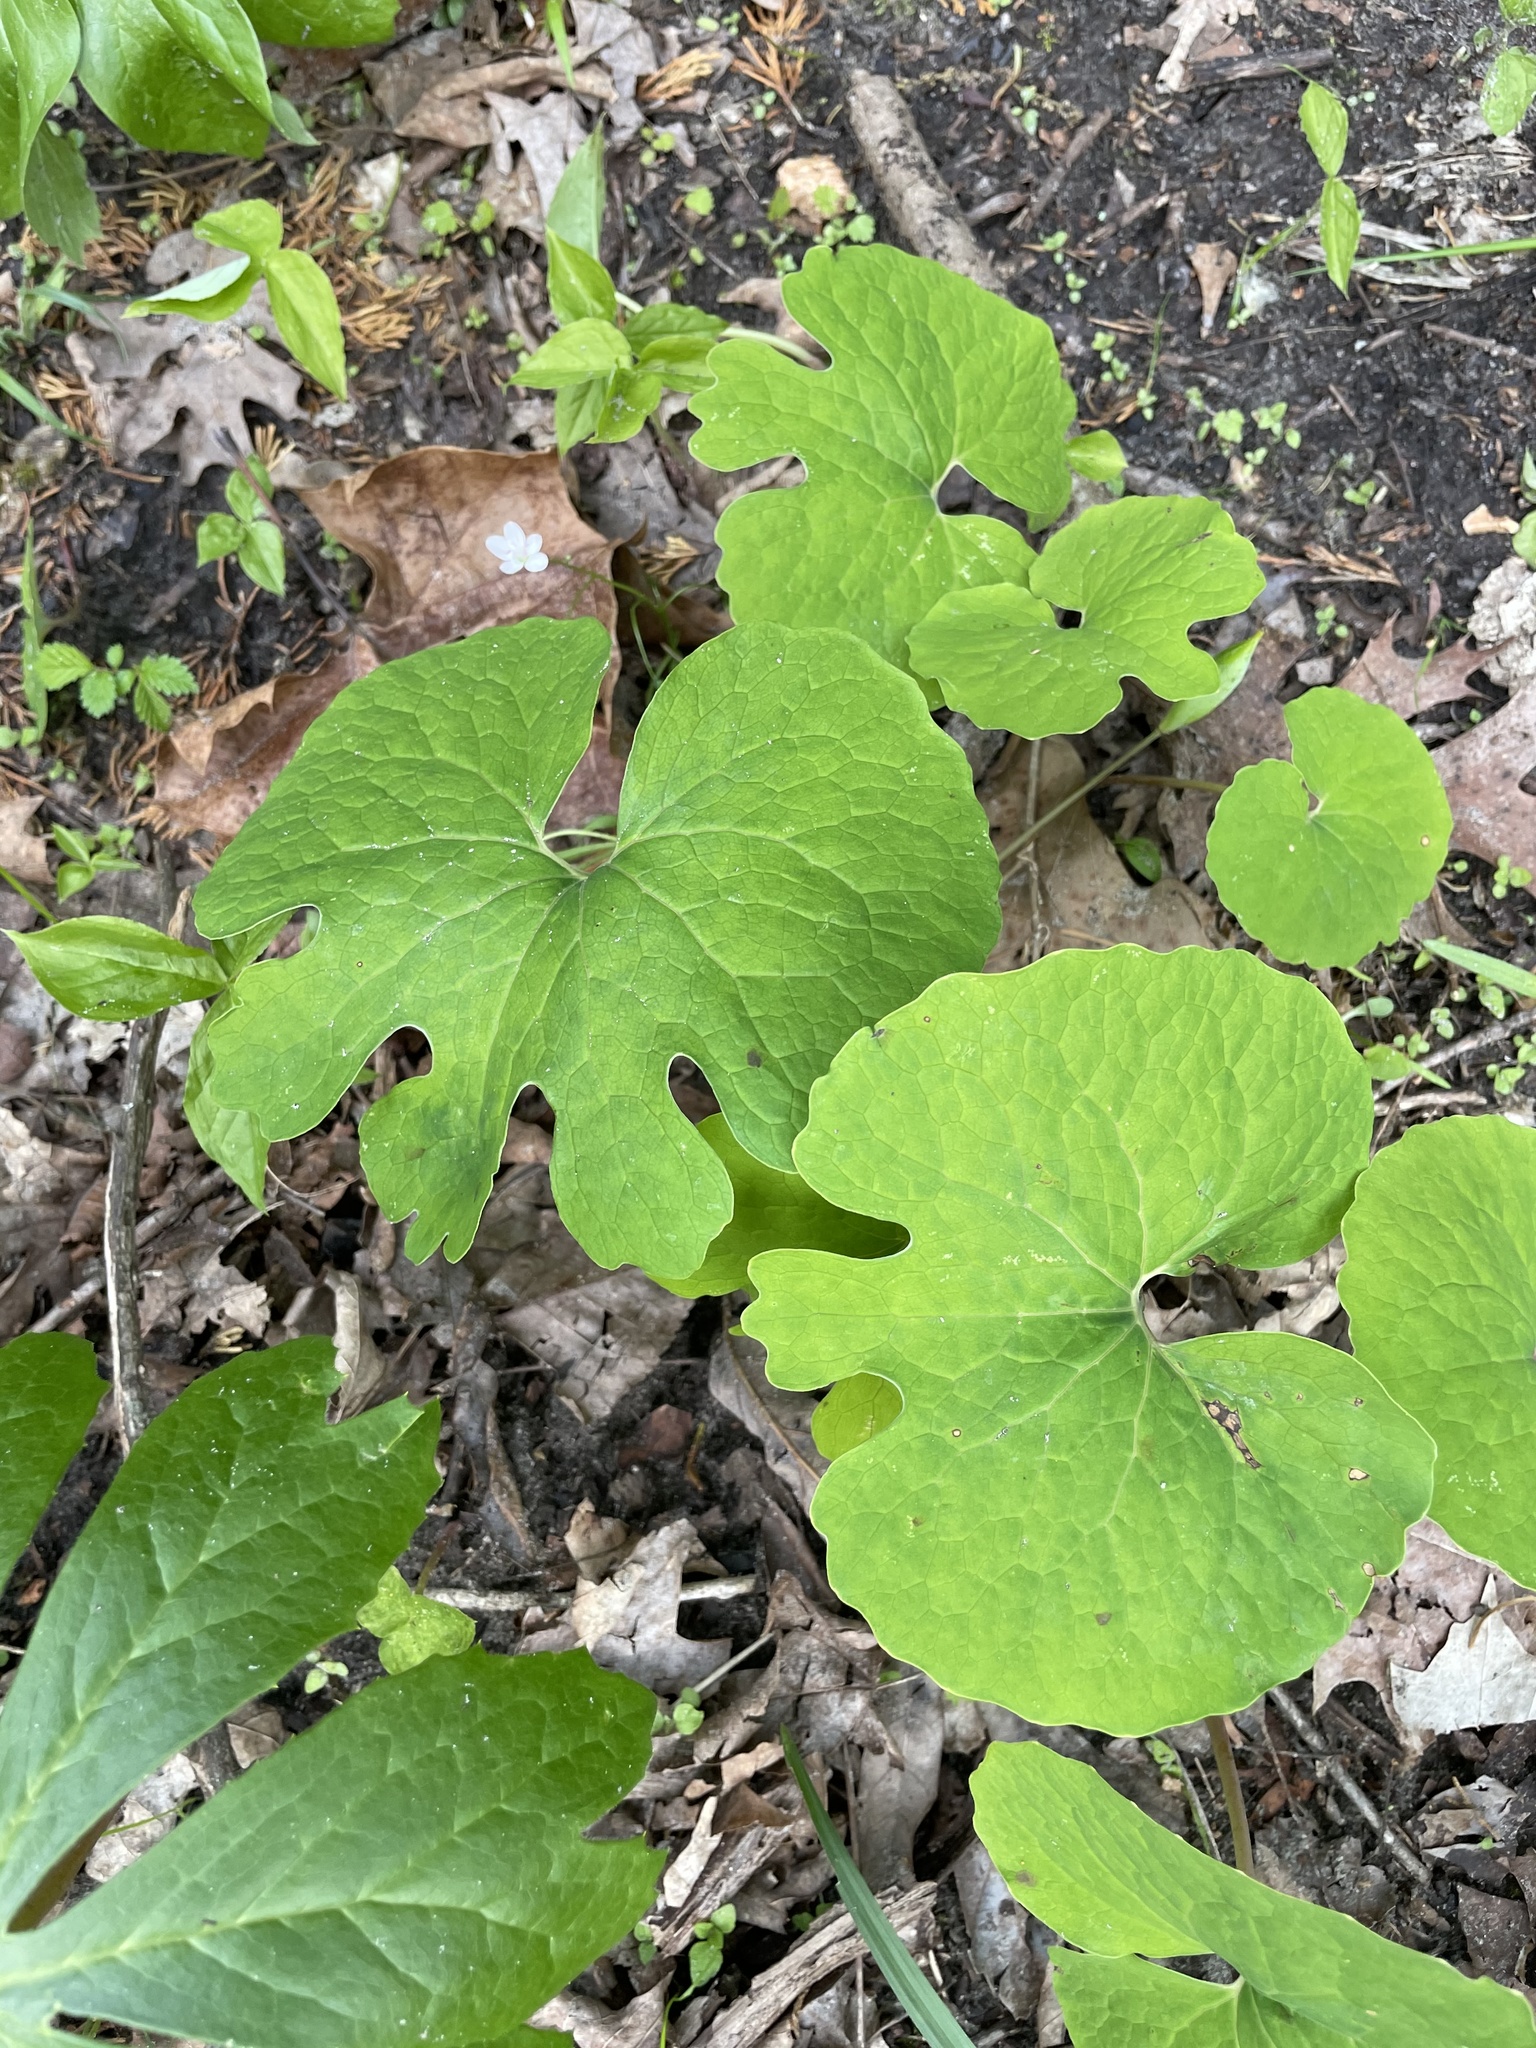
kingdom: Plantae
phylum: Tracheophyta
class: Magnoliopsida
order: Ranunculales
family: Papaveraceae
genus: Sanguinaria
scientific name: Sanguinaria canadensis
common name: Bloodroot
